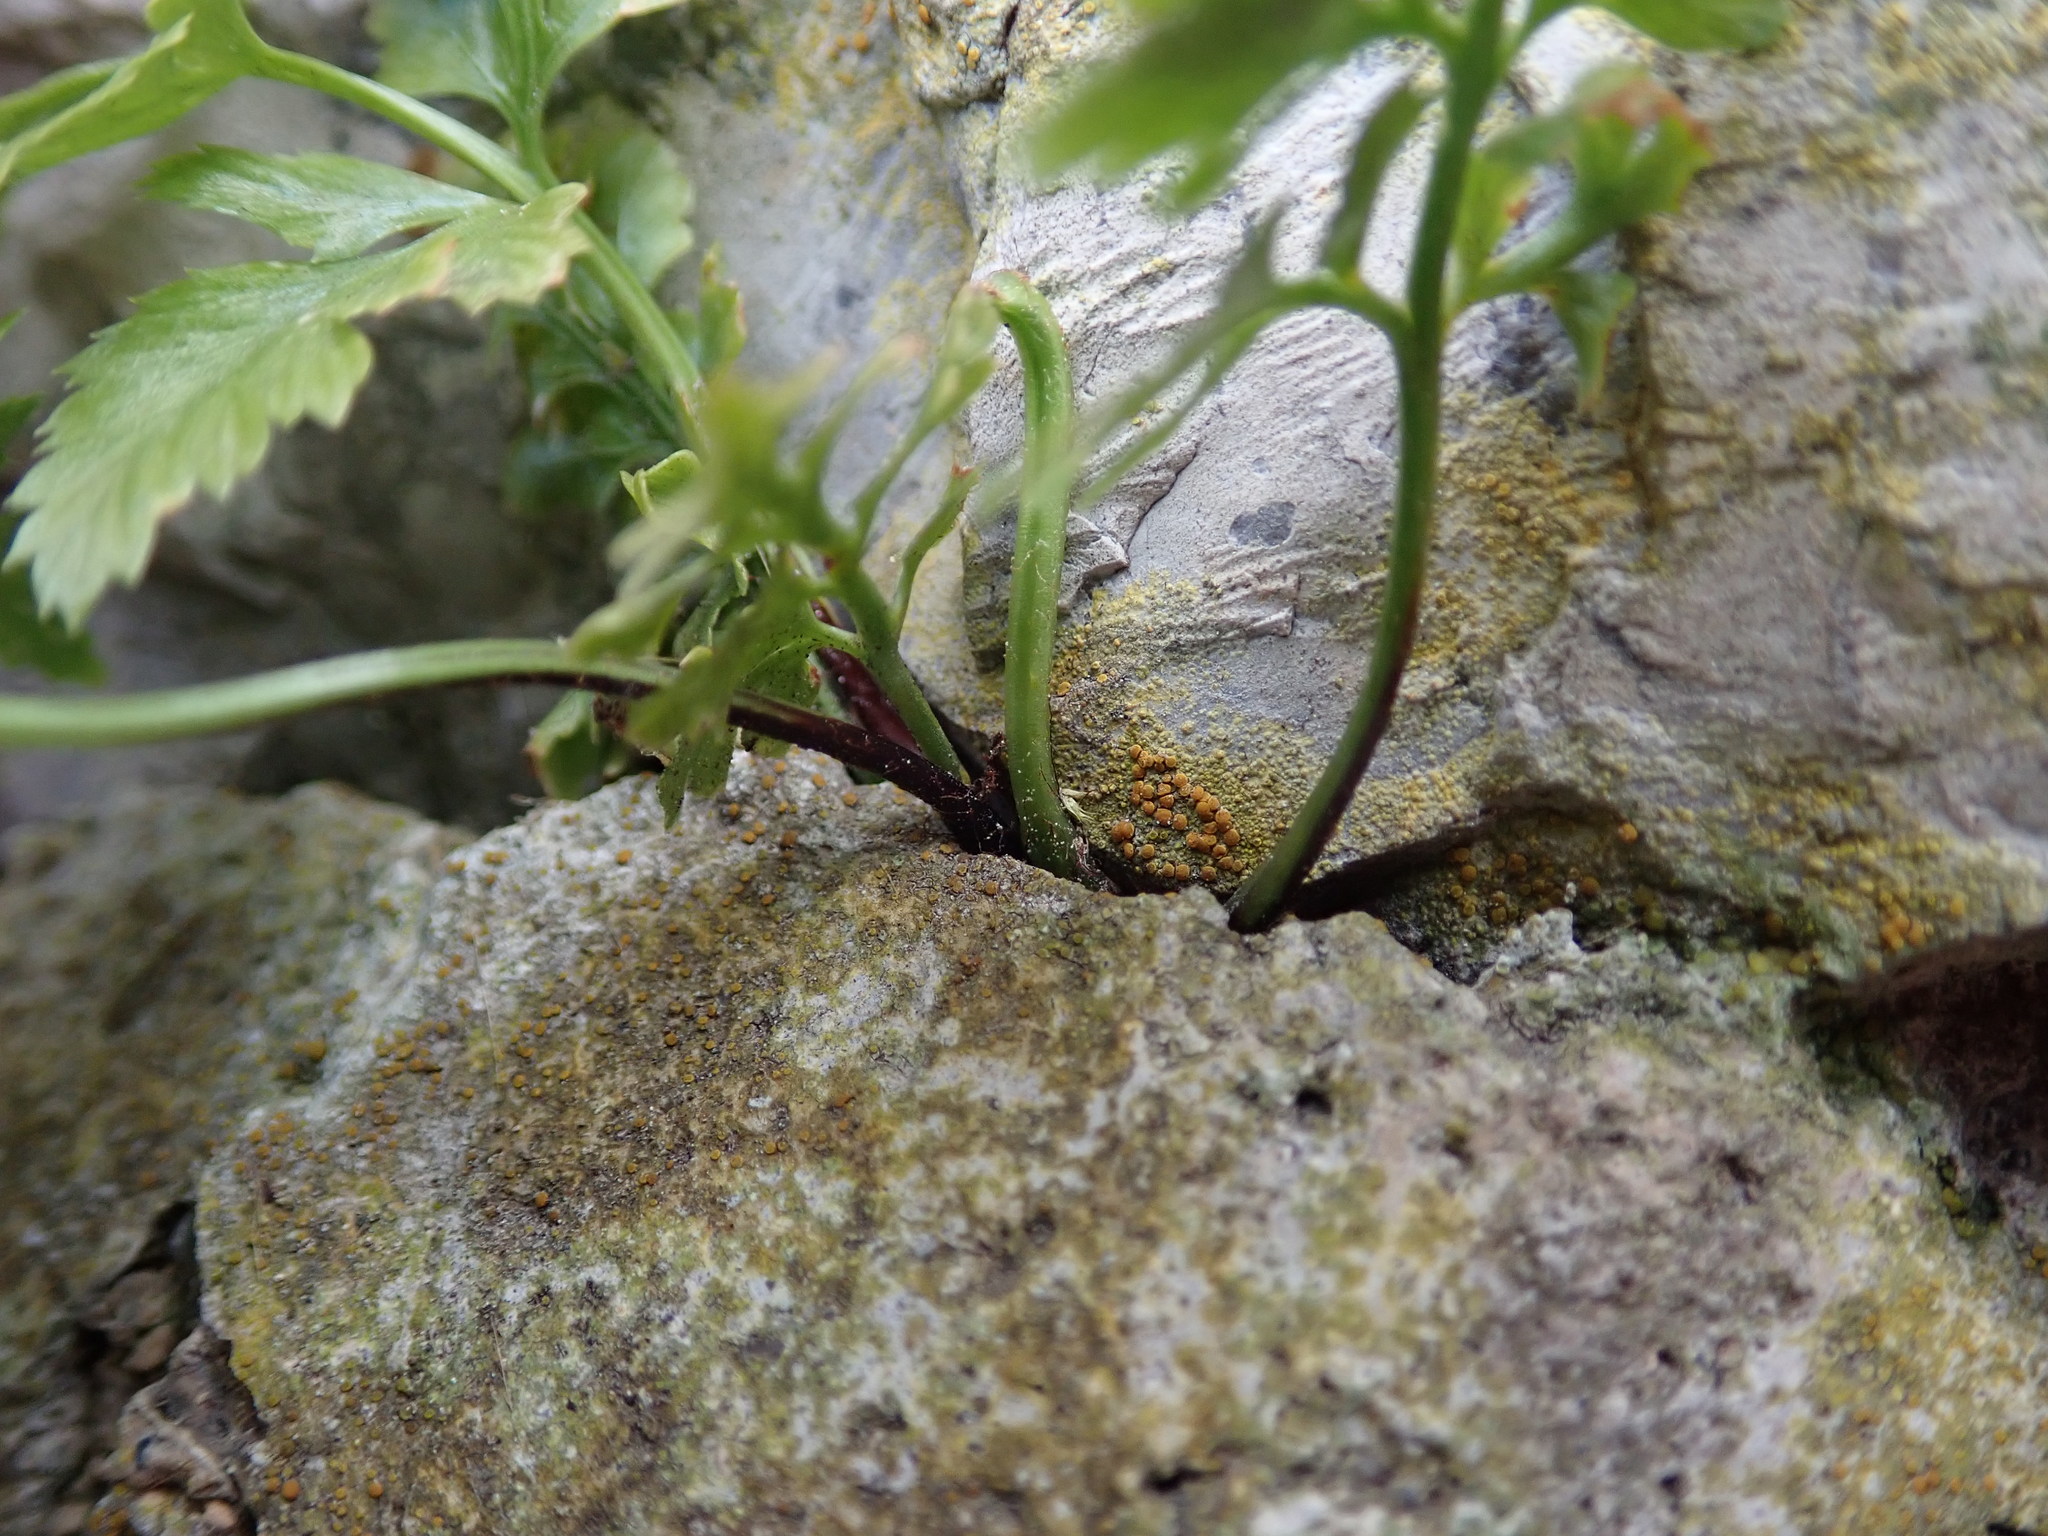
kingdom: Plantae
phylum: Tracheophyta
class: Polypodiopsida
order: Polypodiales
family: Aspleniaceae
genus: Asplenium
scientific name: Asplenium onopteris
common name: Irish spleenwort
